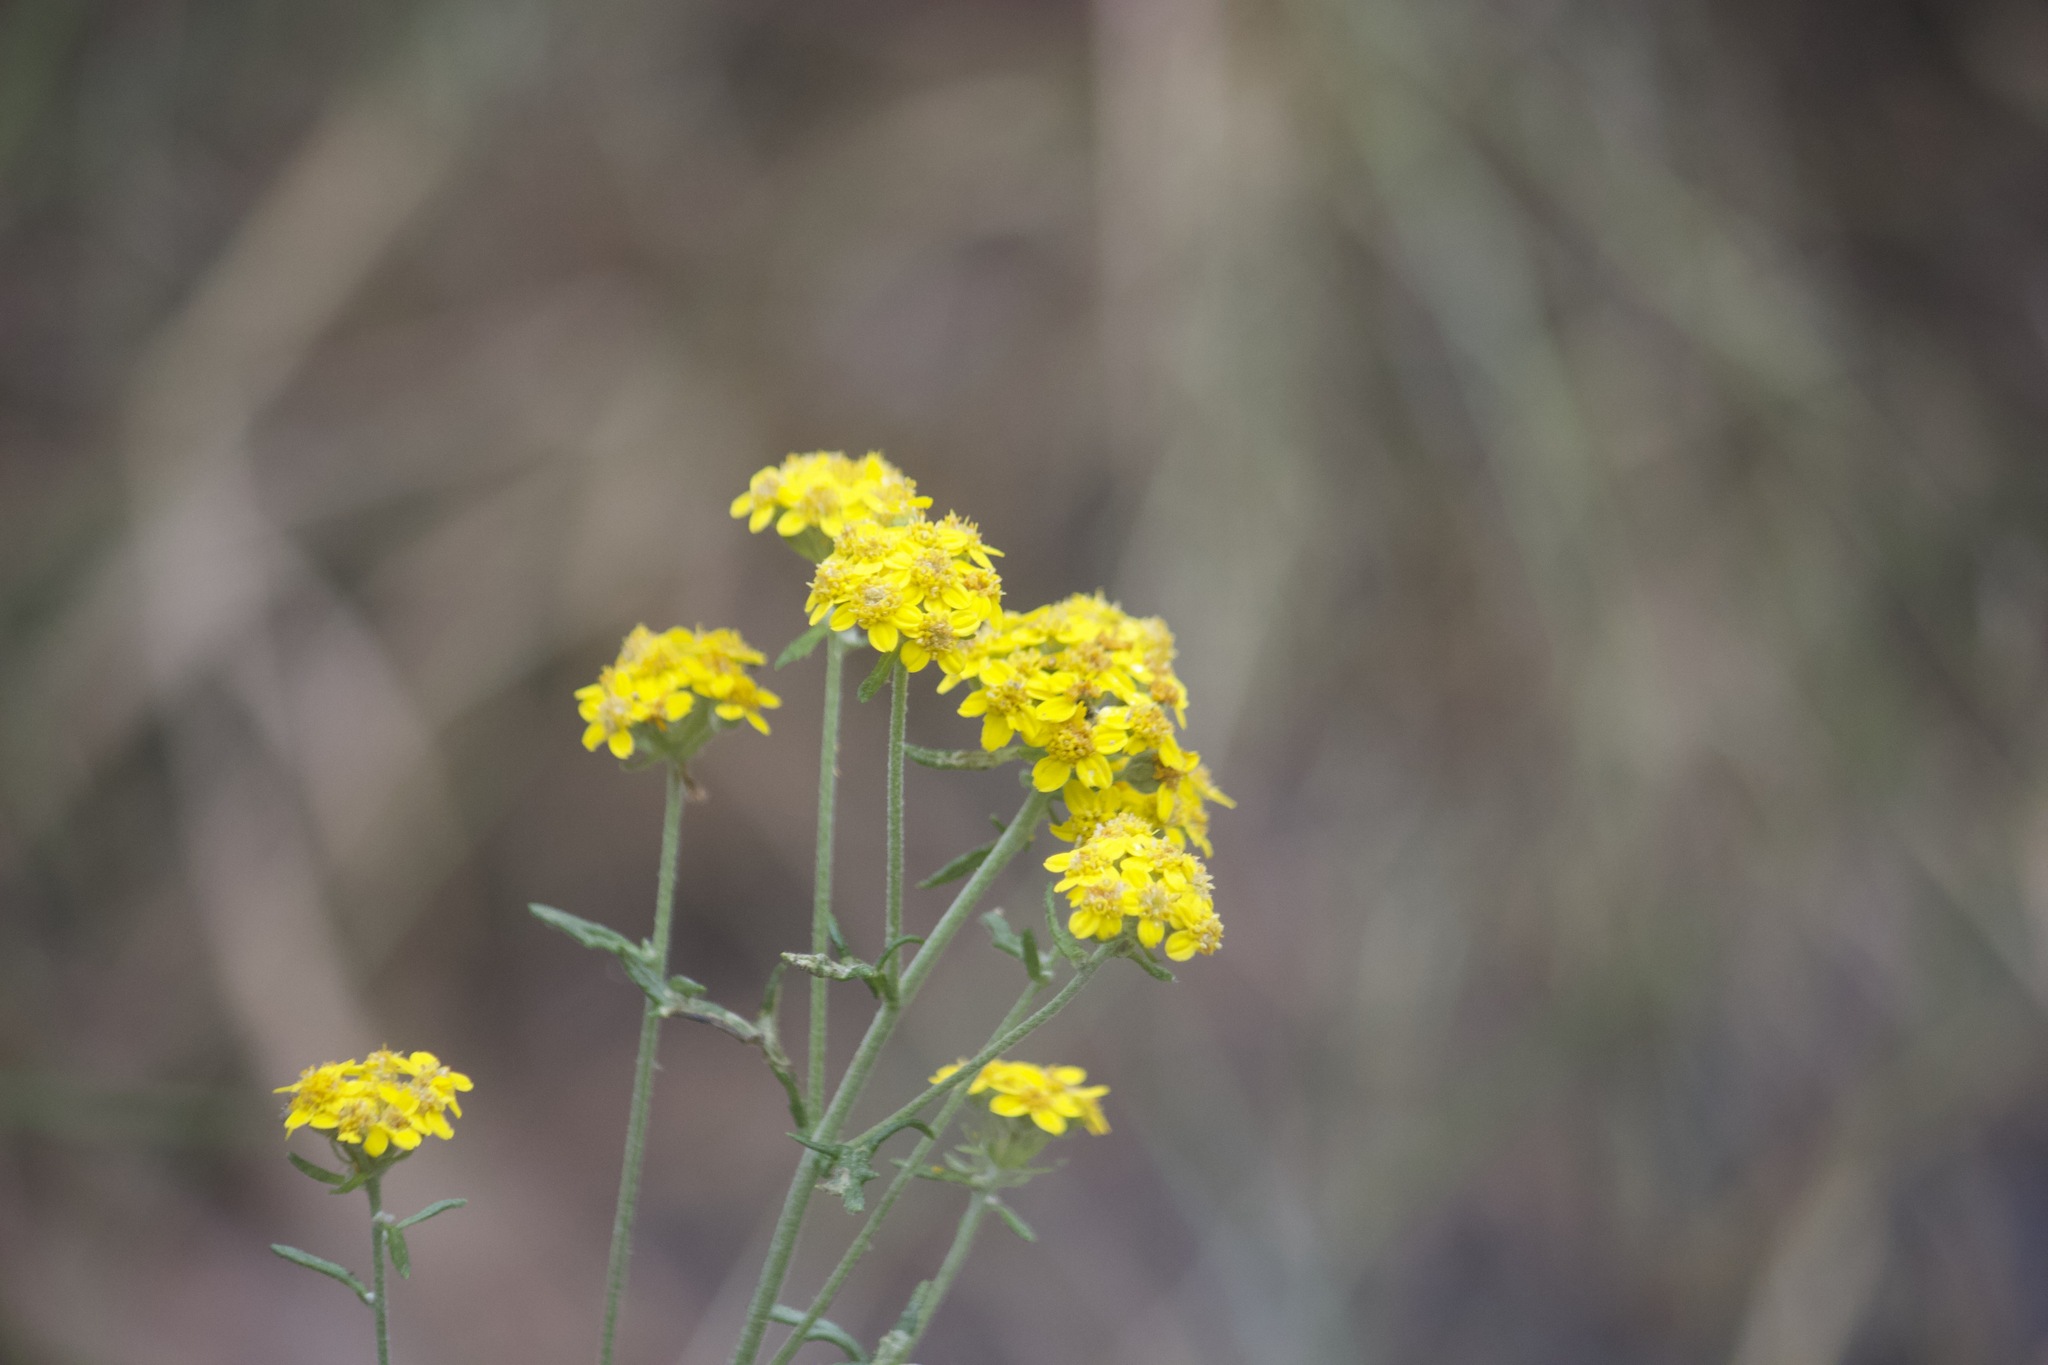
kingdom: Plantae
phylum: Tracheophyta
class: Magnoliopsida
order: Asterales
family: Asteraceae
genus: Eriophyllum
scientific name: Eriophyllum confertiflorum
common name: Golden-yarrow
